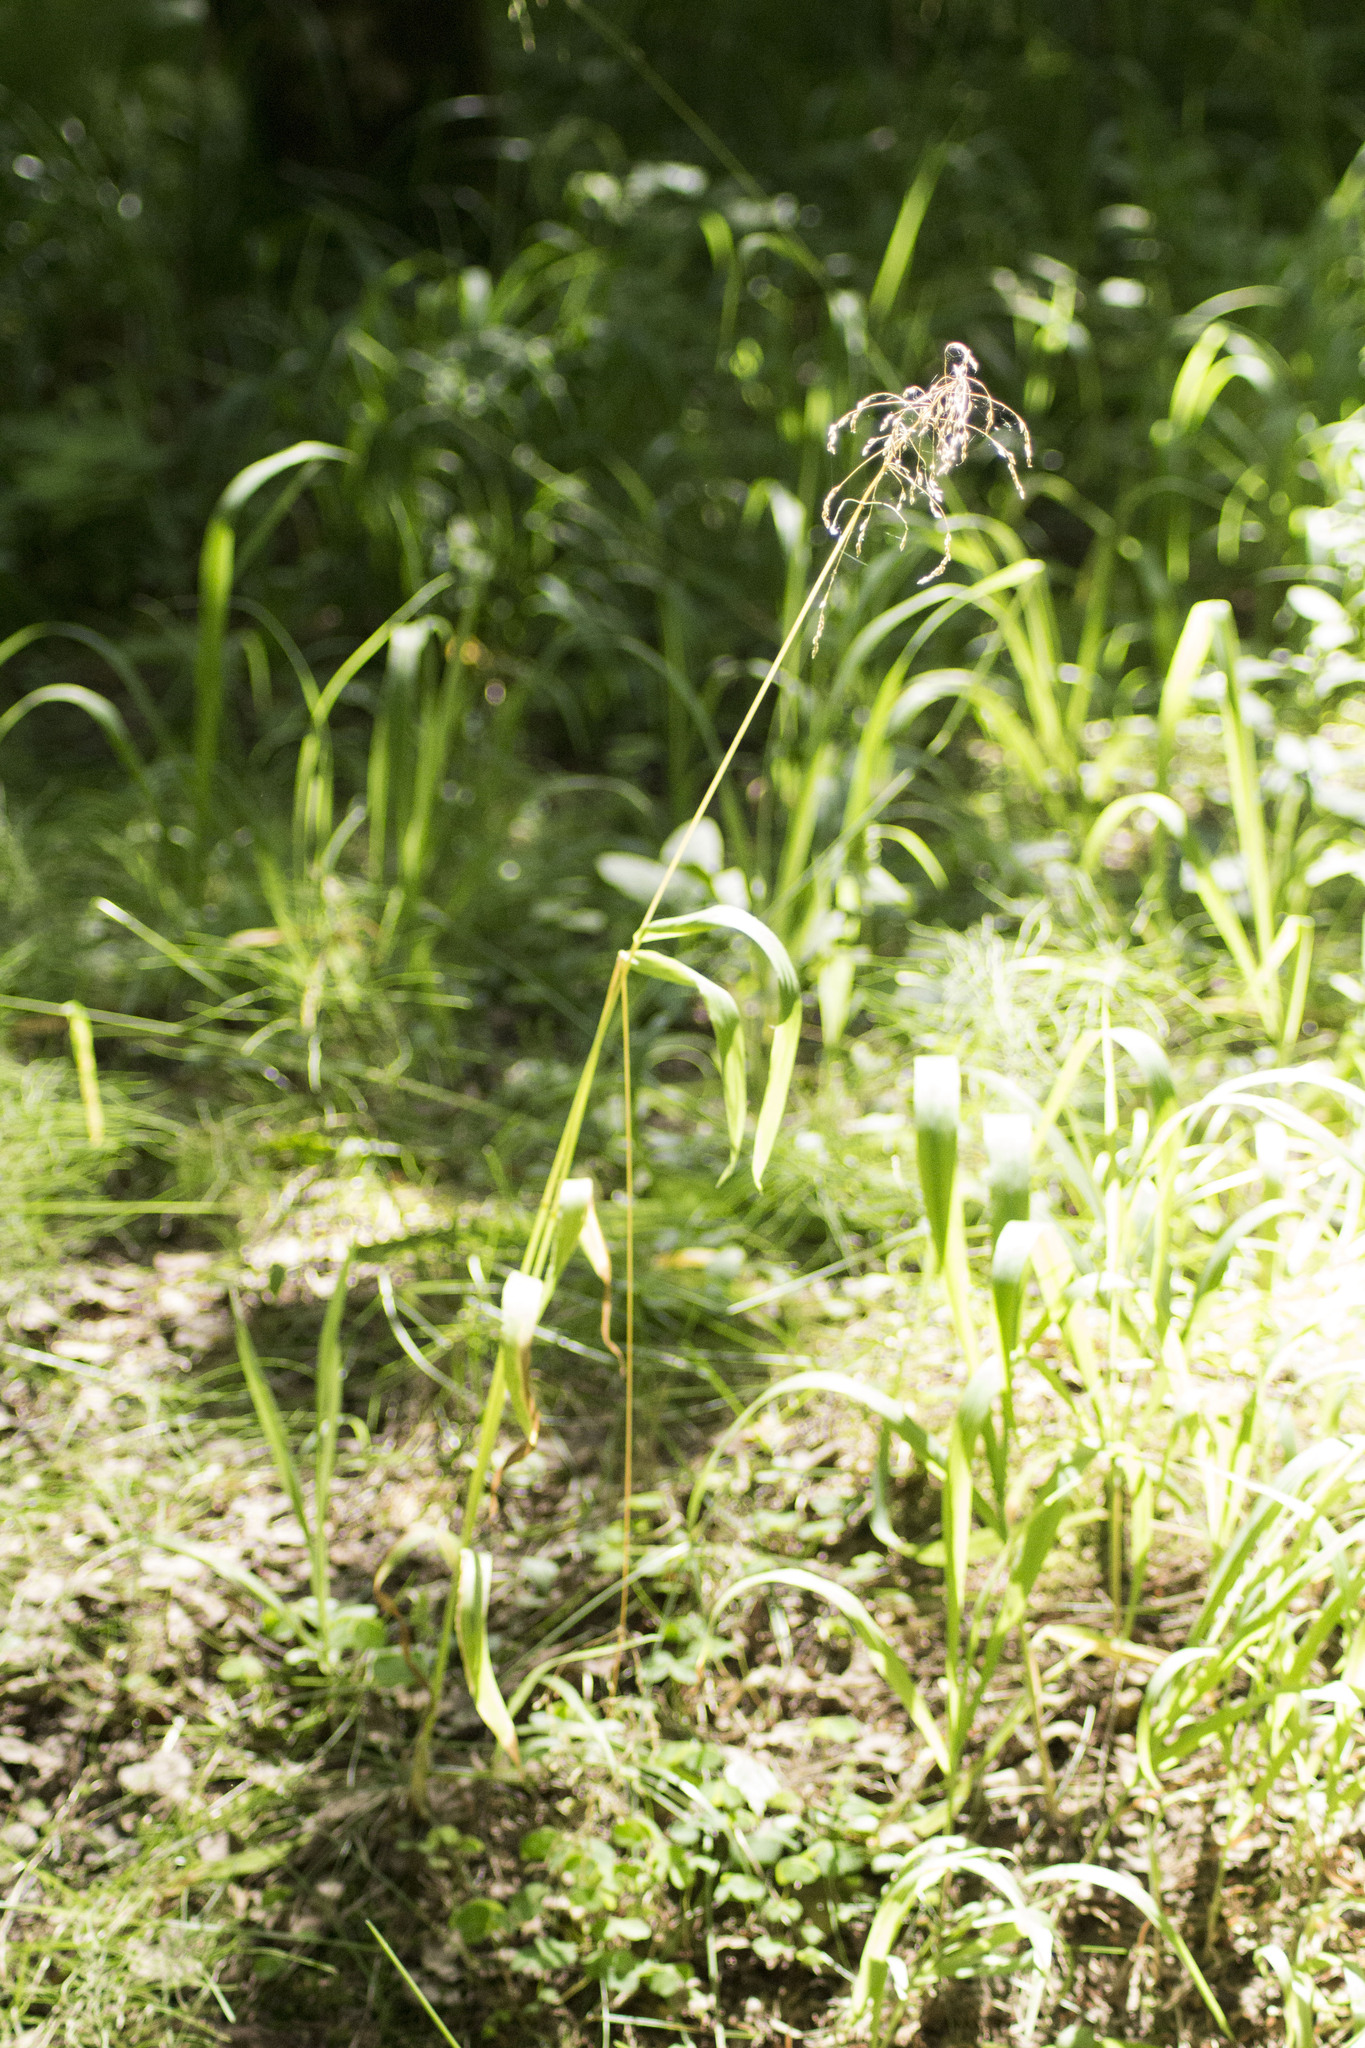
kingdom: Plantae
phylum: Tracheophyta
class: Liliopsida
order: Poales
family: Poaceae
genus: Milium
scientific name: Milium effusum
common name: Wood millet
